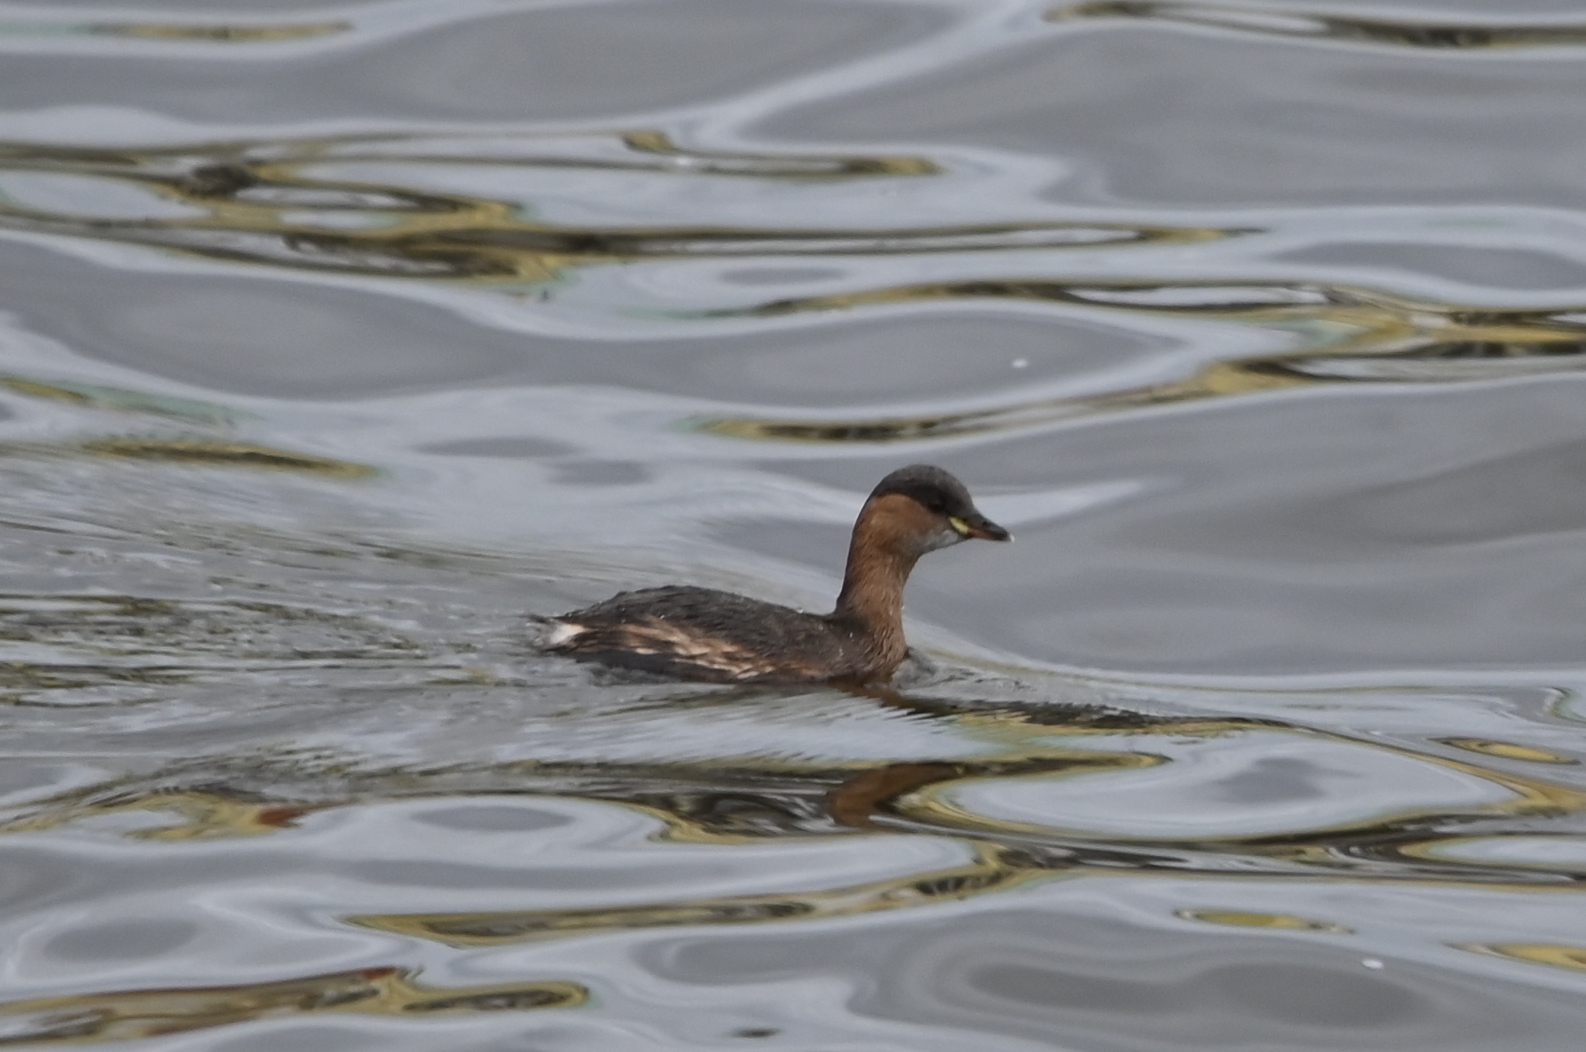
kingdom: Animalia
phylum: Chordata
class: Aves
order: Podicipediformes
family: Podicipedidae
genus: Tachybaptus
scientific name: Tachybaptus ruficollis
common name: Little grebe
